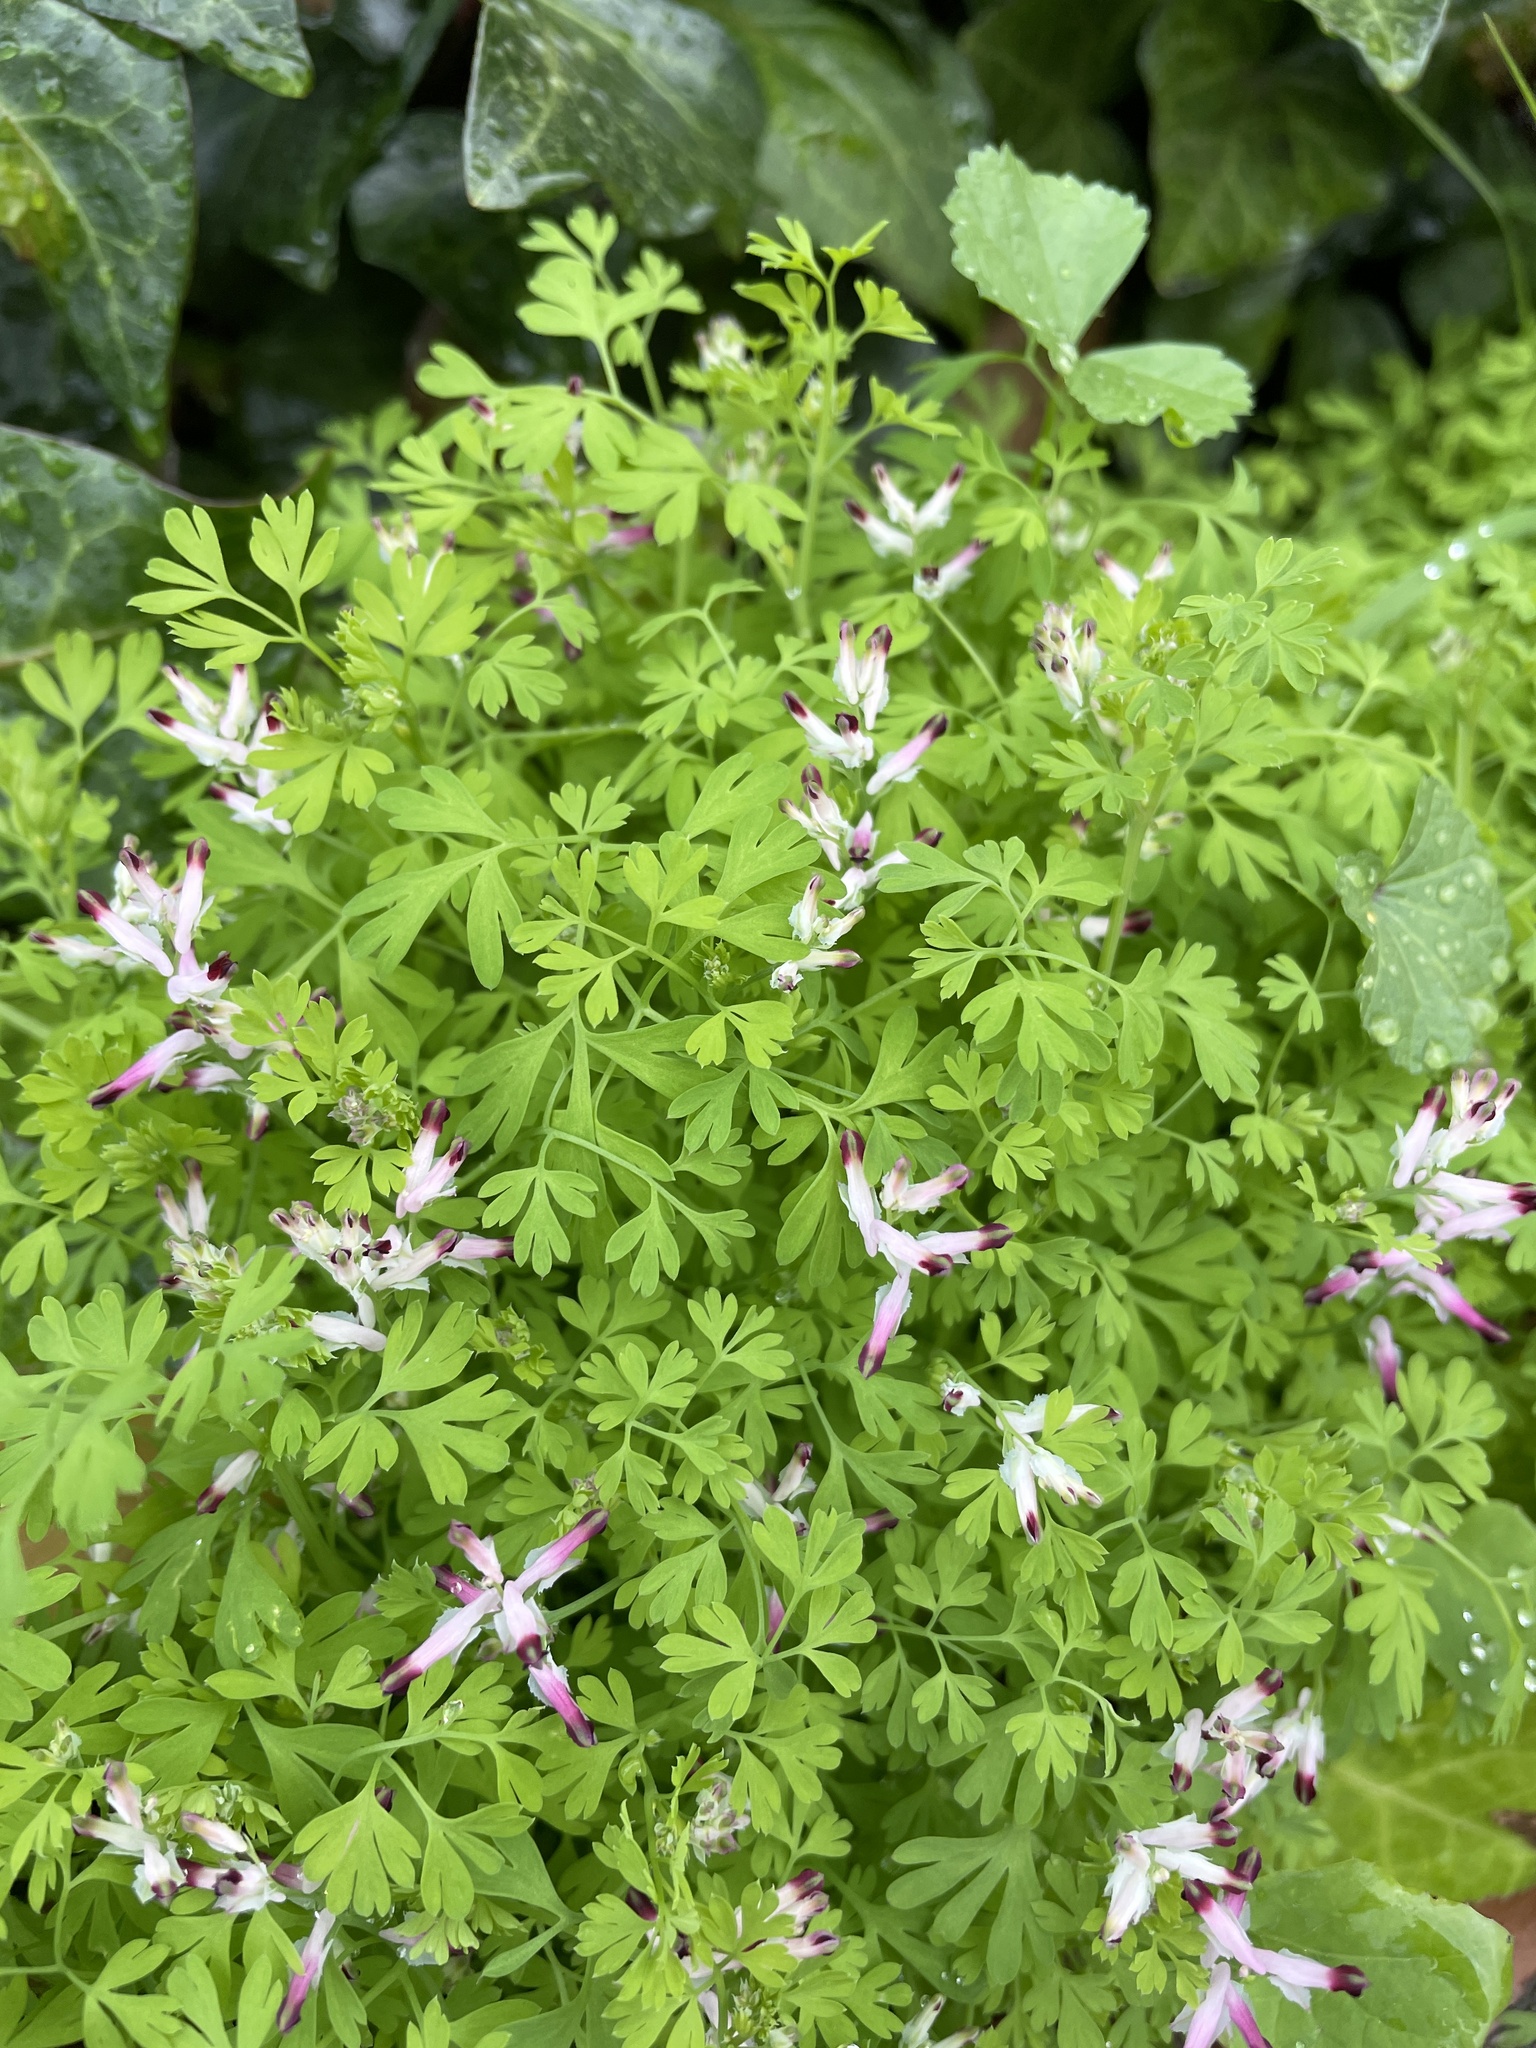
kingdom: Plantae
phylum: Tracheophyta
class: Magnoliopsida
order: Ranunculales
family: Papaveraceae
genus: Fumaria
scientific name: Fumaria muralis
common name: Common ramping-fumitory
